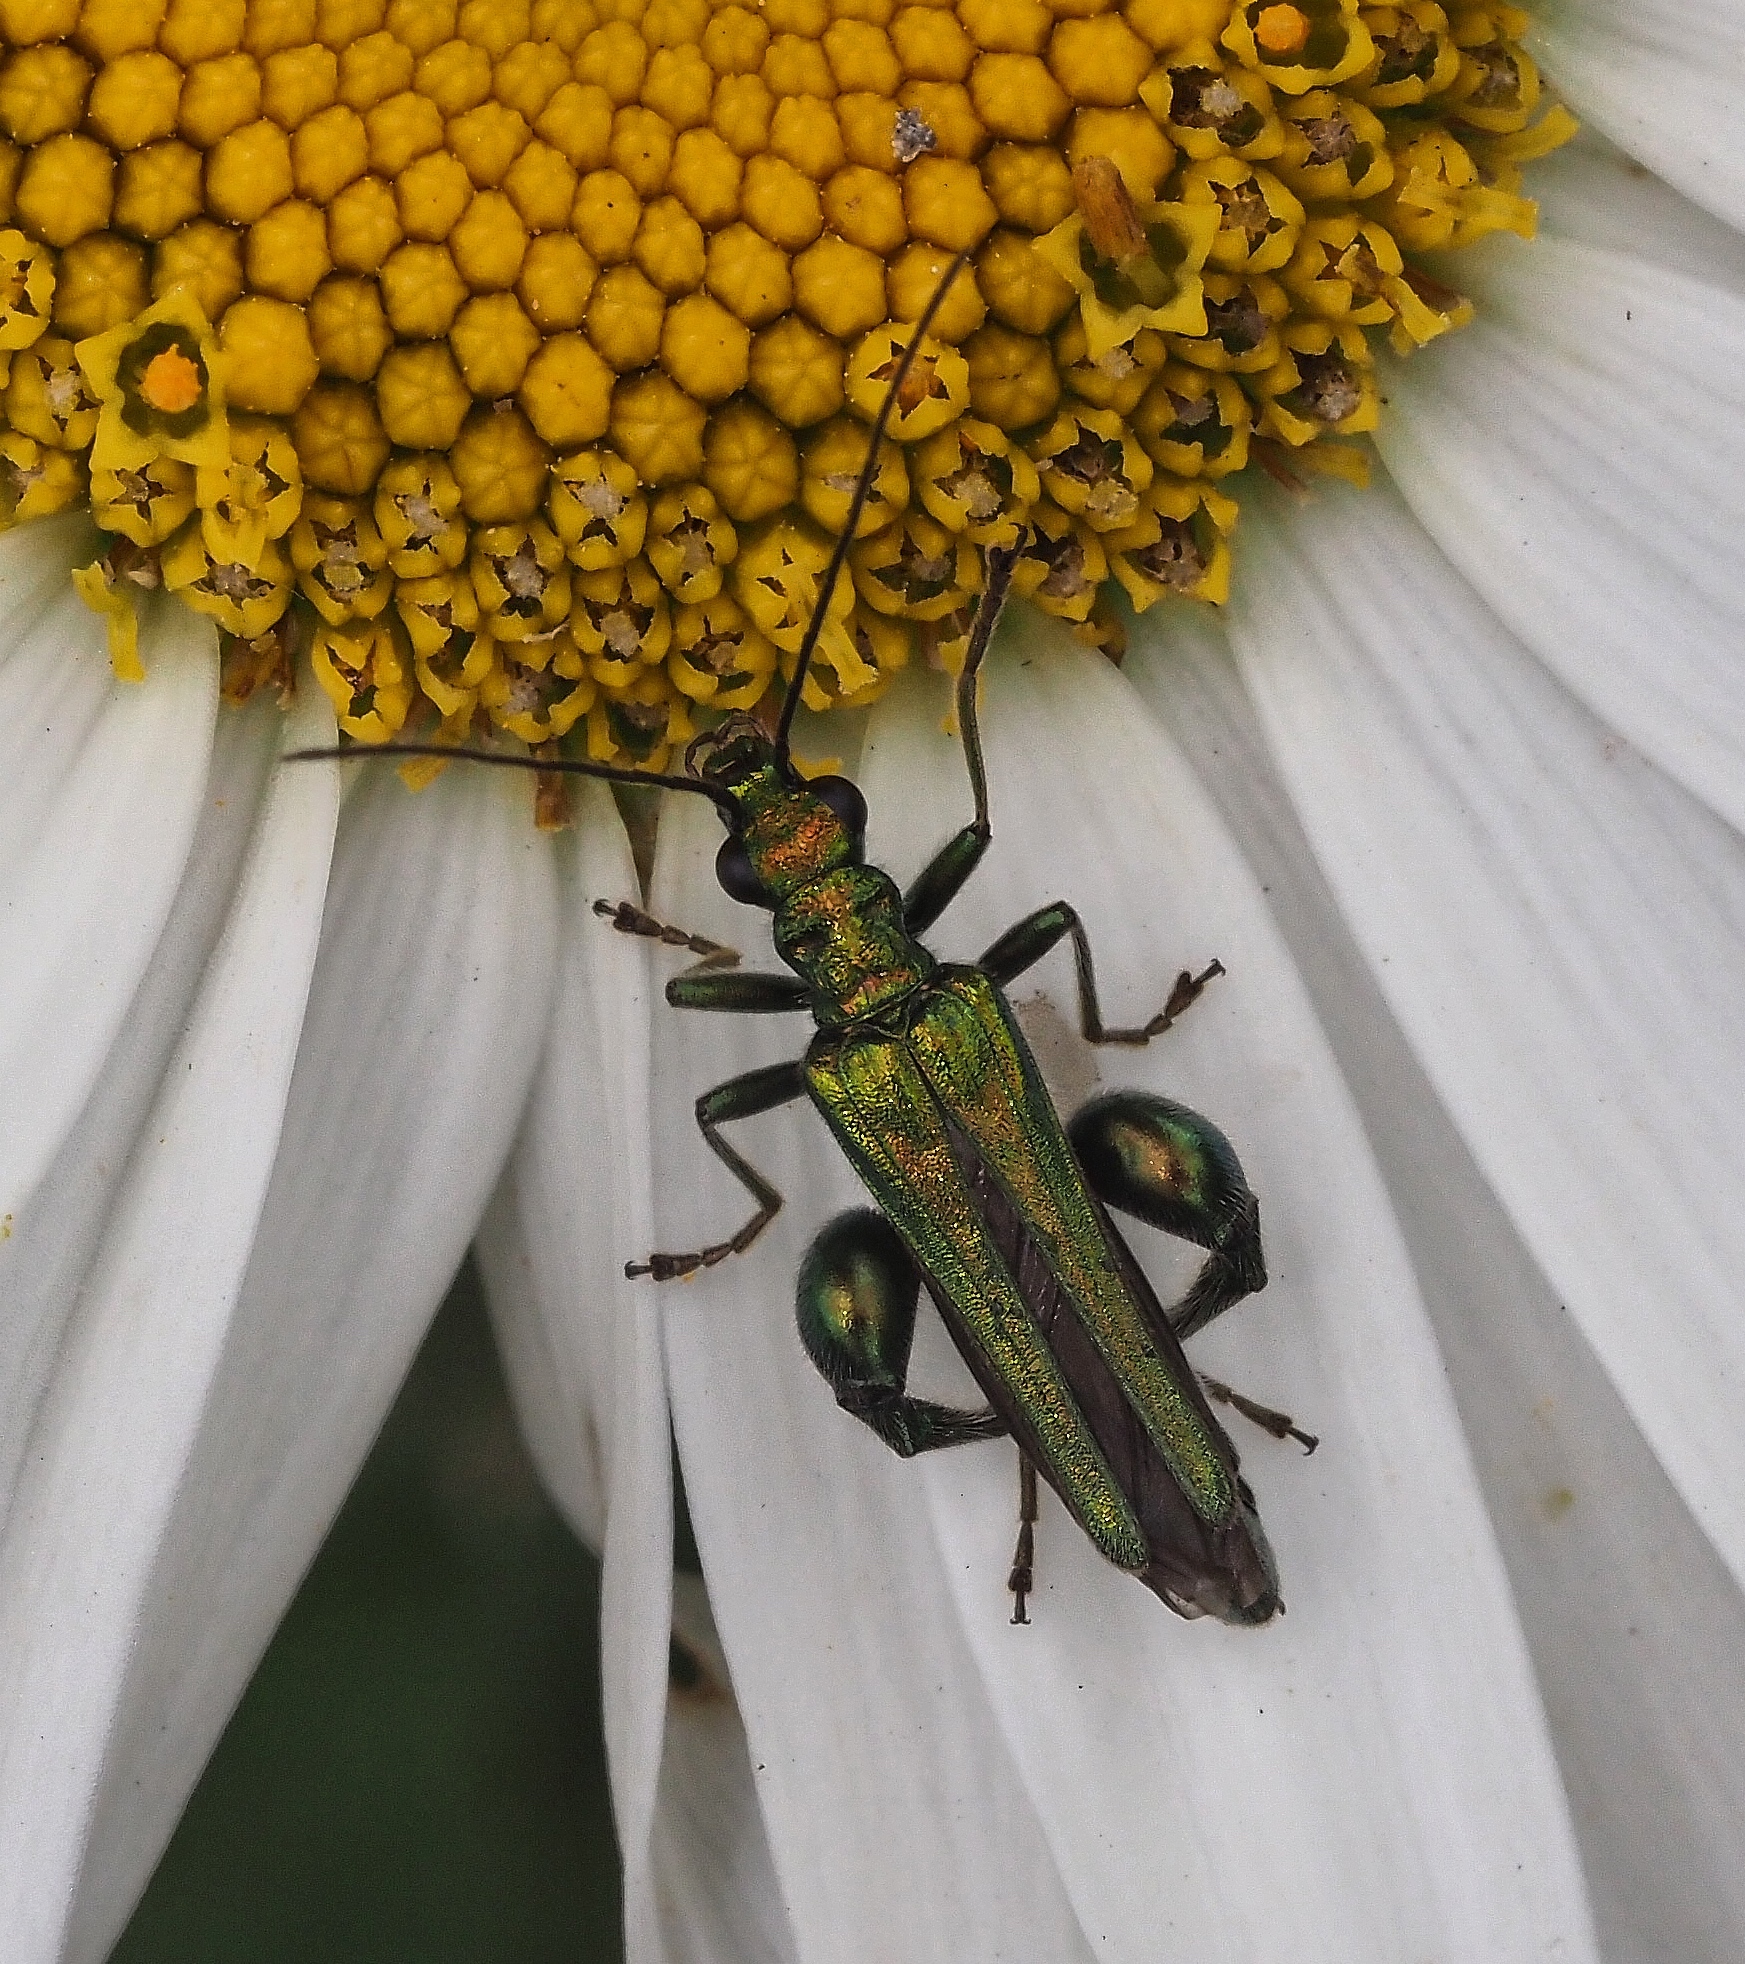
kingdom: Animalia
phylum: Arthropoda
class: Insecta
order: Coleoptera
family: Oedemeridae
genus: Oedemera
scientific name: Oedemera nobilis
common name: Swollen-thighed beetle
